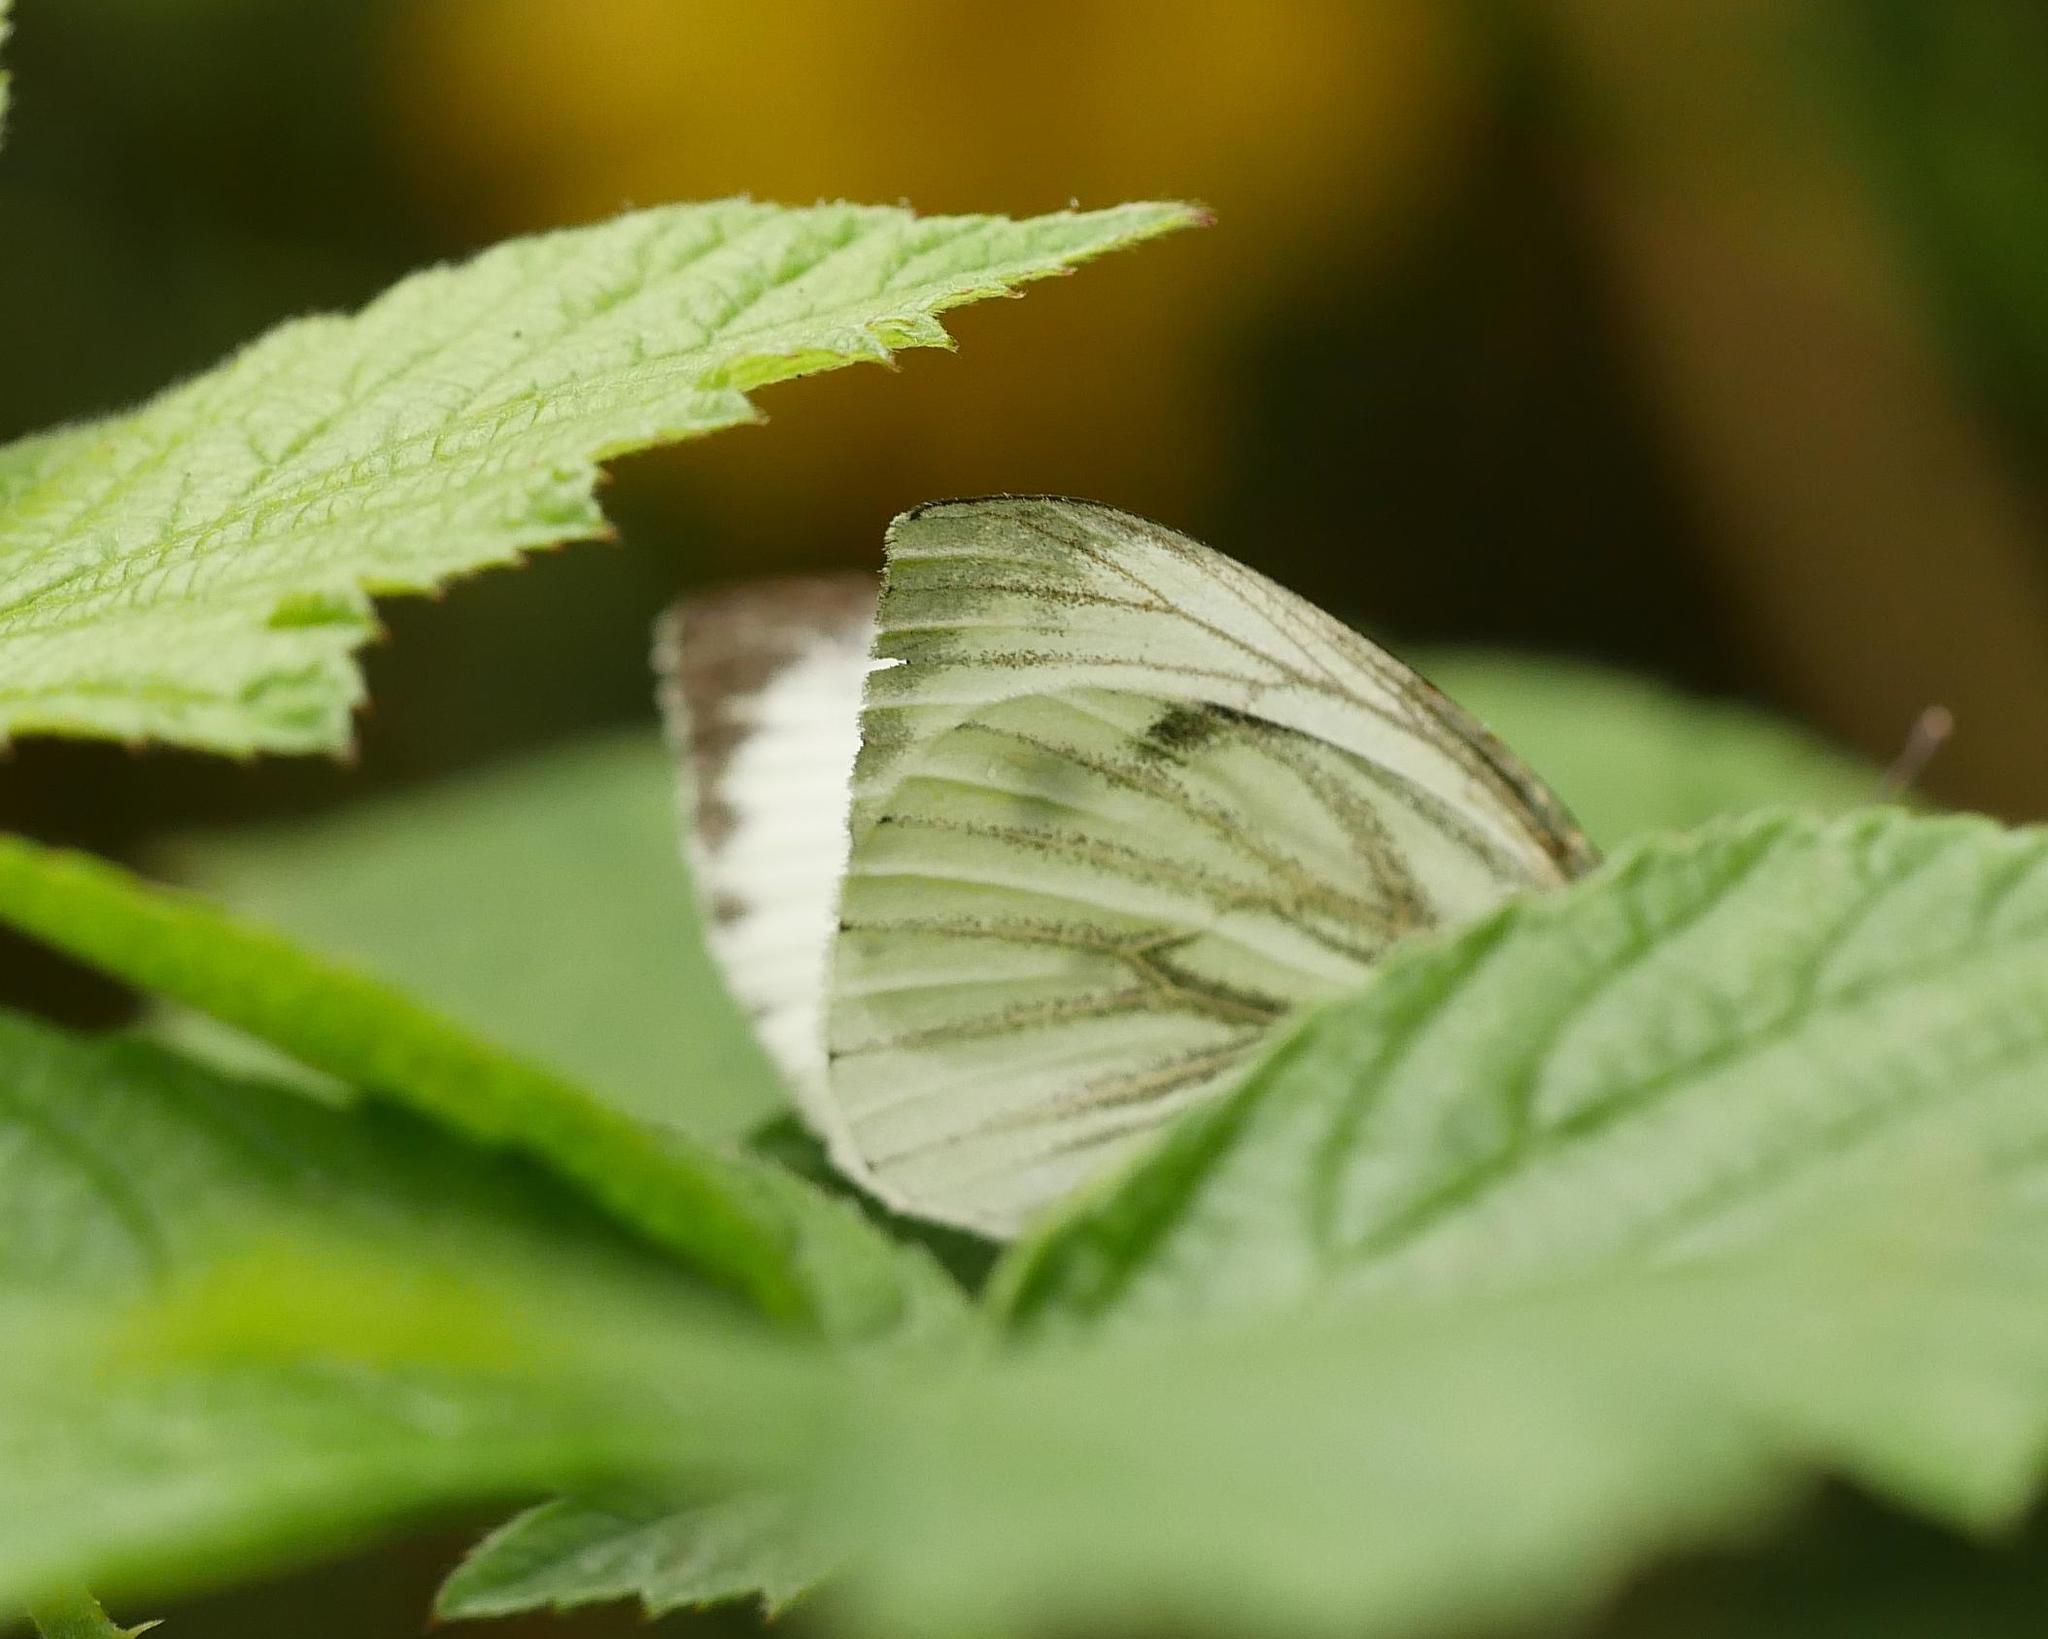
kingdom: Animalia
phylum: Arthropoda
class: Insecta
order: Lepidoptera
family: Pieridae
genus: Pieris
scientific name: Pieris napi
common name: Green-veined white
